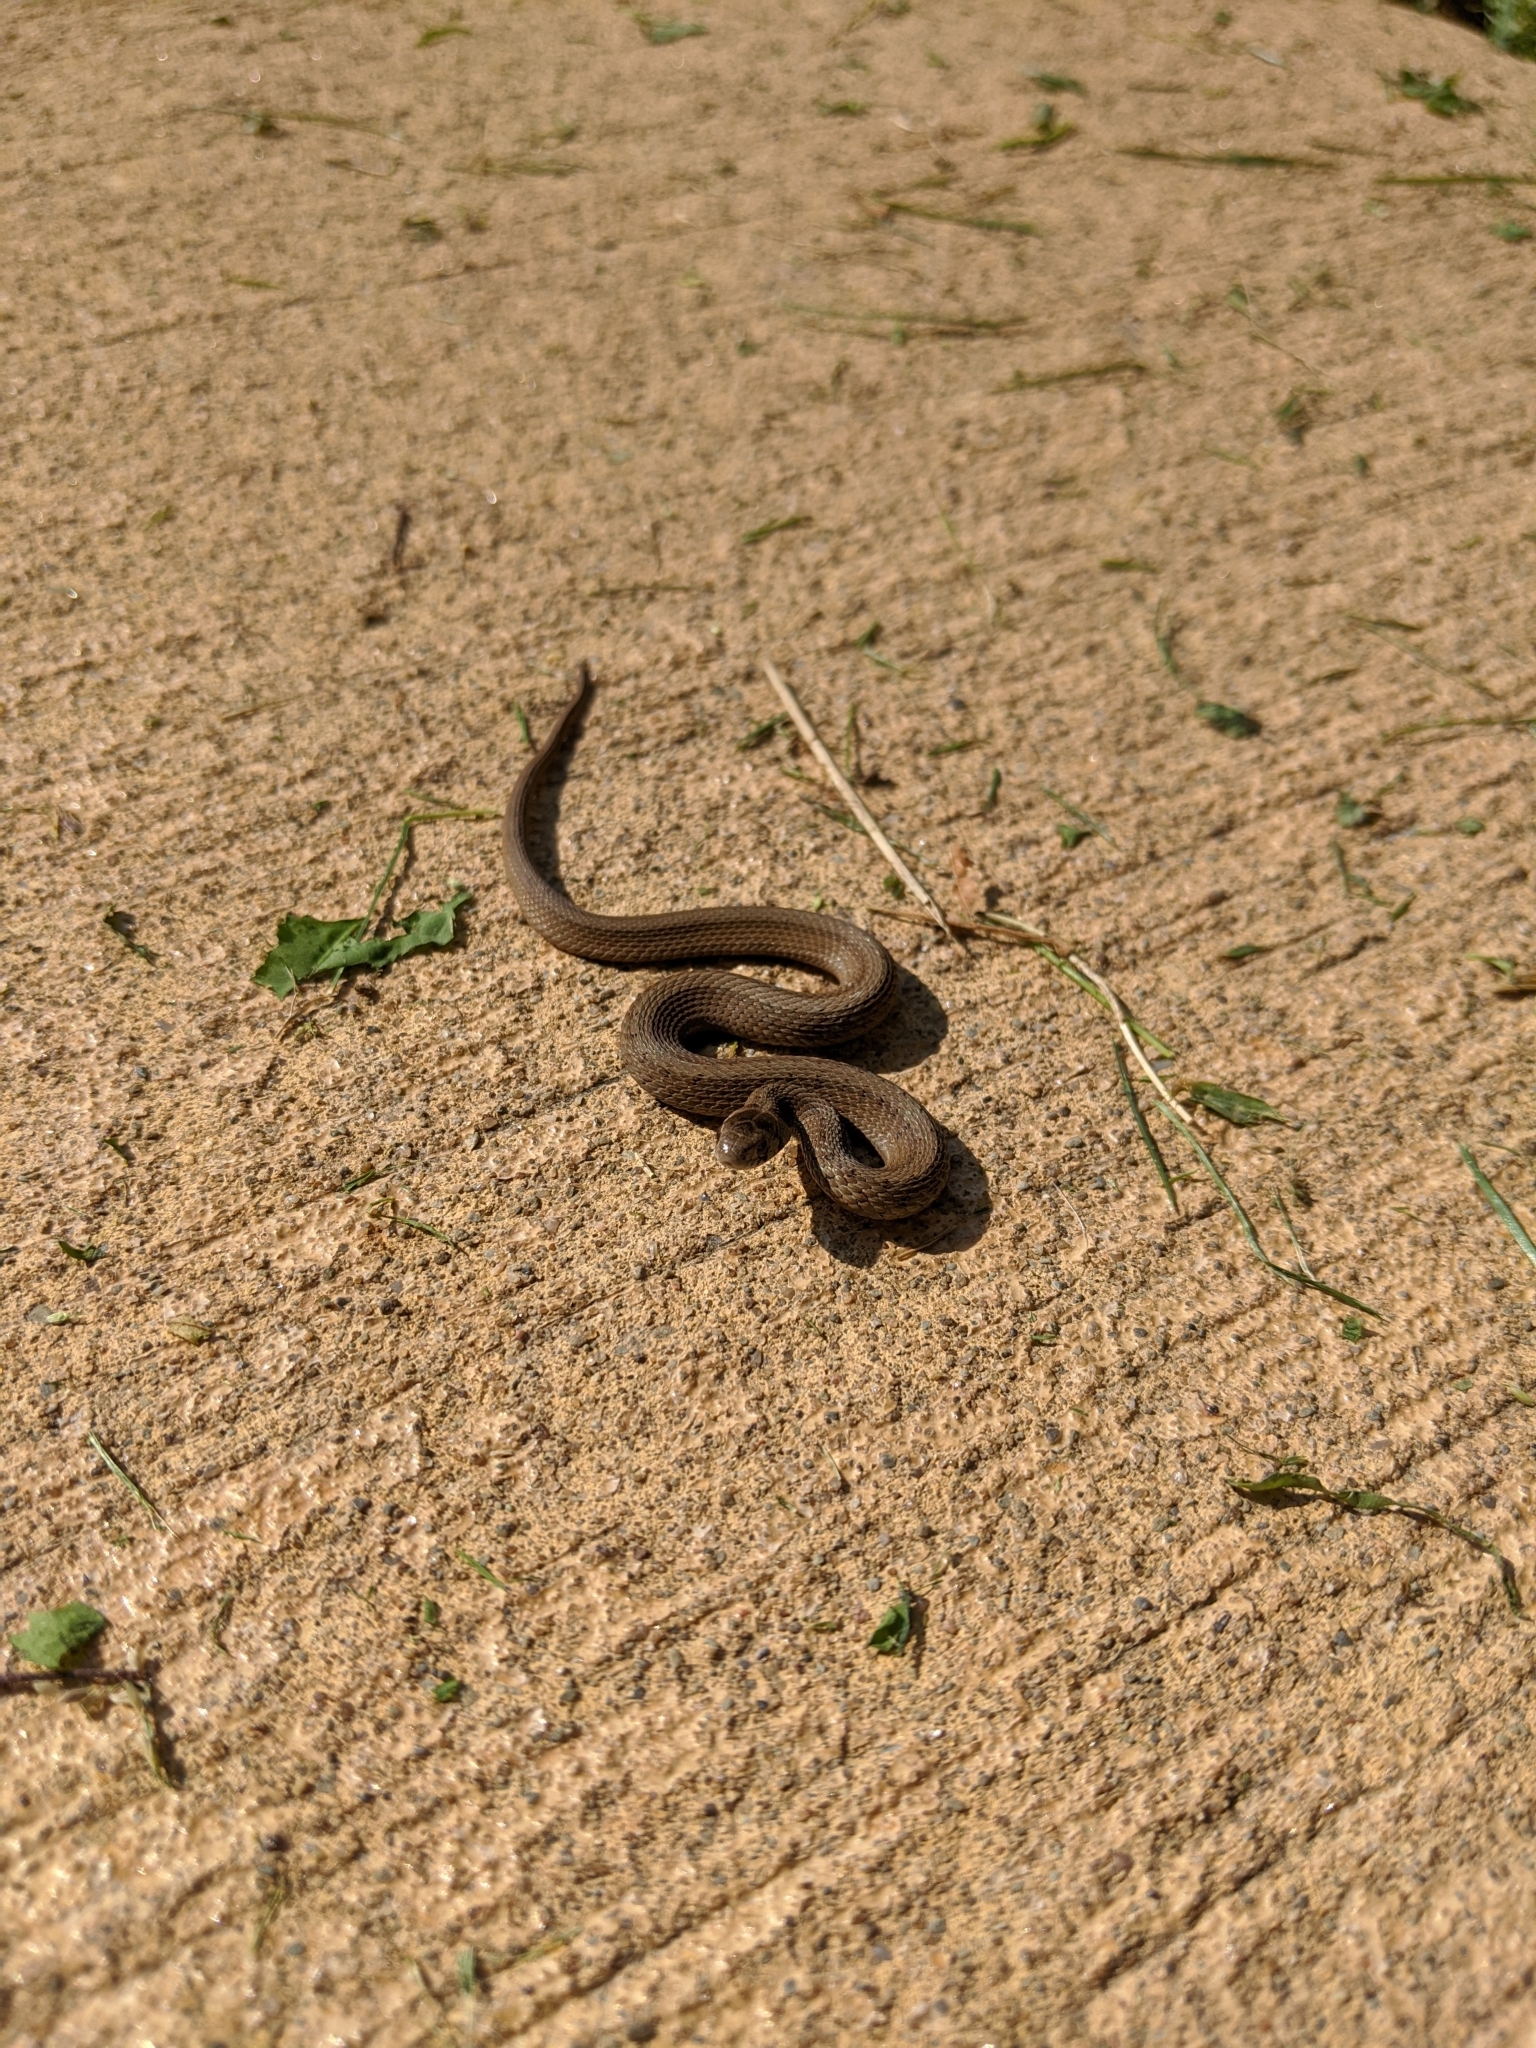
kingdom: Animalia
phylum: Chordata
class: Squamata
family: Colubridae
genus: Storeria
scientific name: Storeria dekayi
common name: (dekay’s) brown snake
